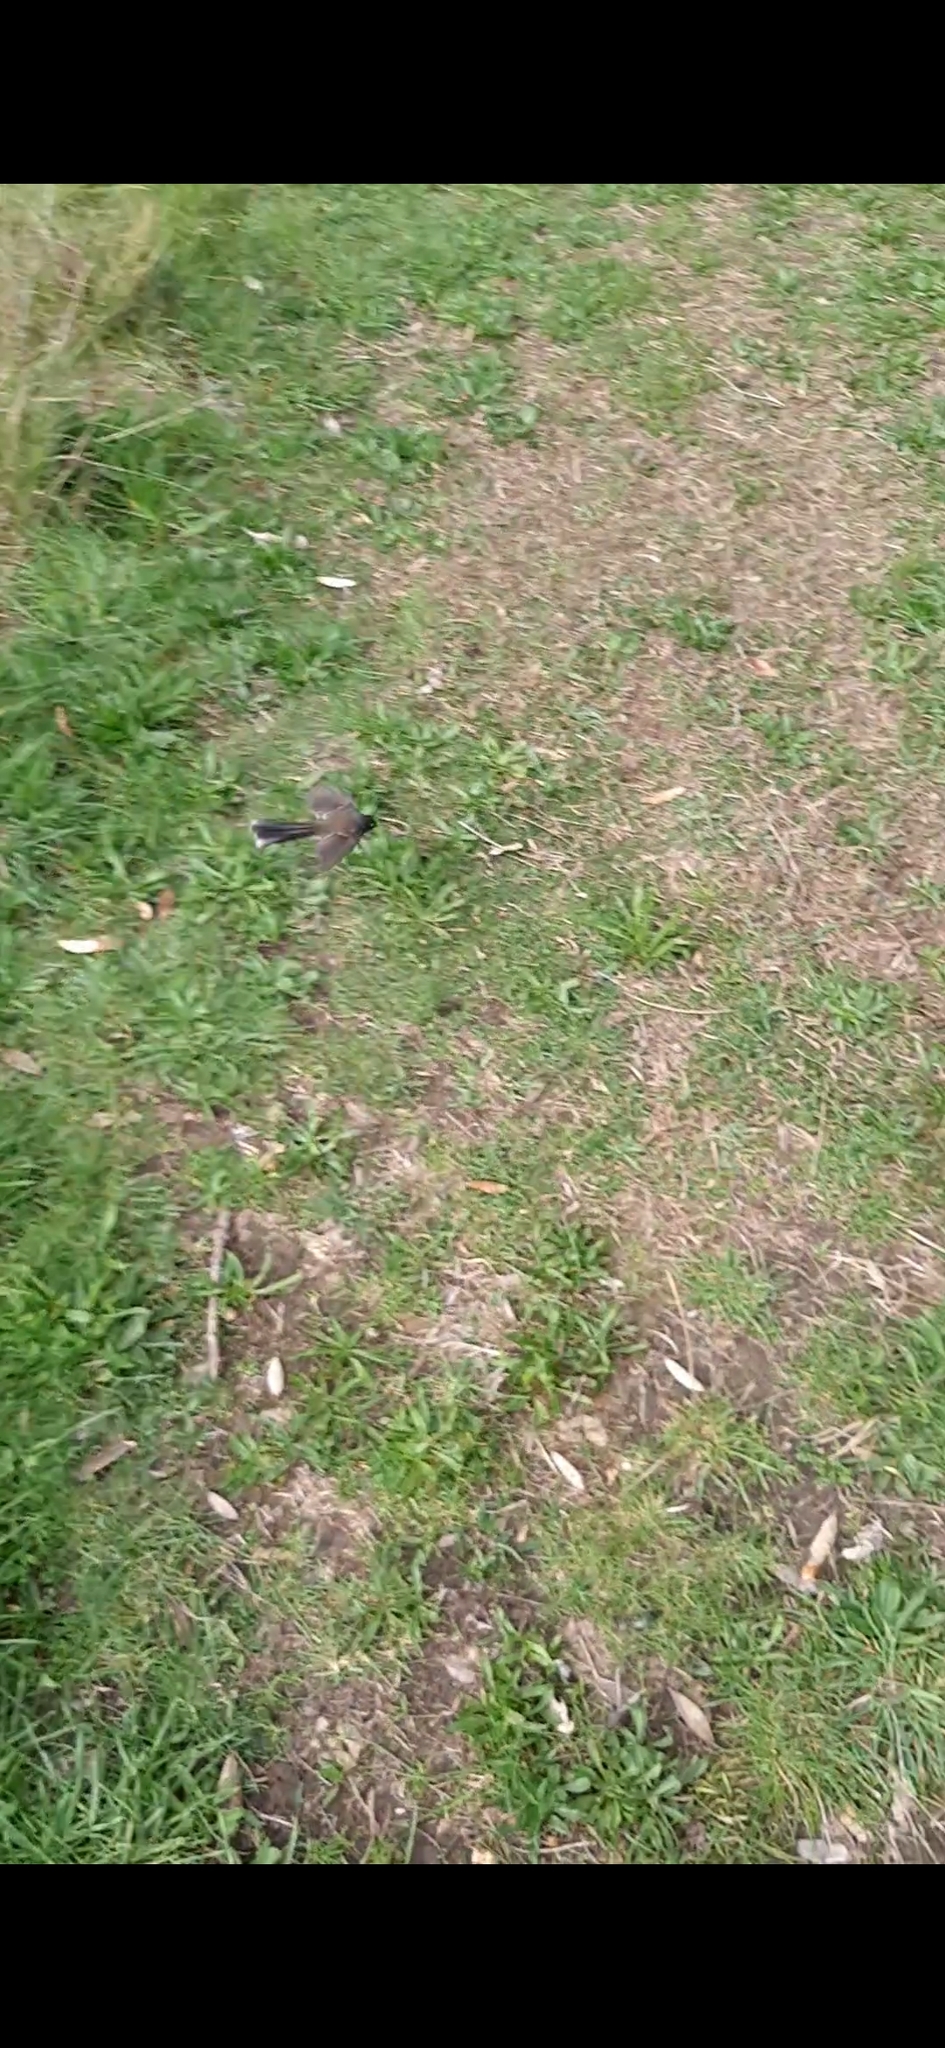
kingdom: Animalia
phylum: Chordata
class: Aves
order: Passeriformes
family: Rhipiduridae
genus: Rhipidura
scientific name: Rhipidura fuliginosa
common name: New zealand fantail
